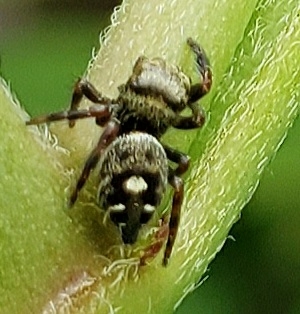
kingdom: Animalia
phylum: Arthropoda
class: Arachnida
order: Araneae
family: Salticidae
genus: Phidippus
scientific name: Phidippus audax
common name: Bold jumper
